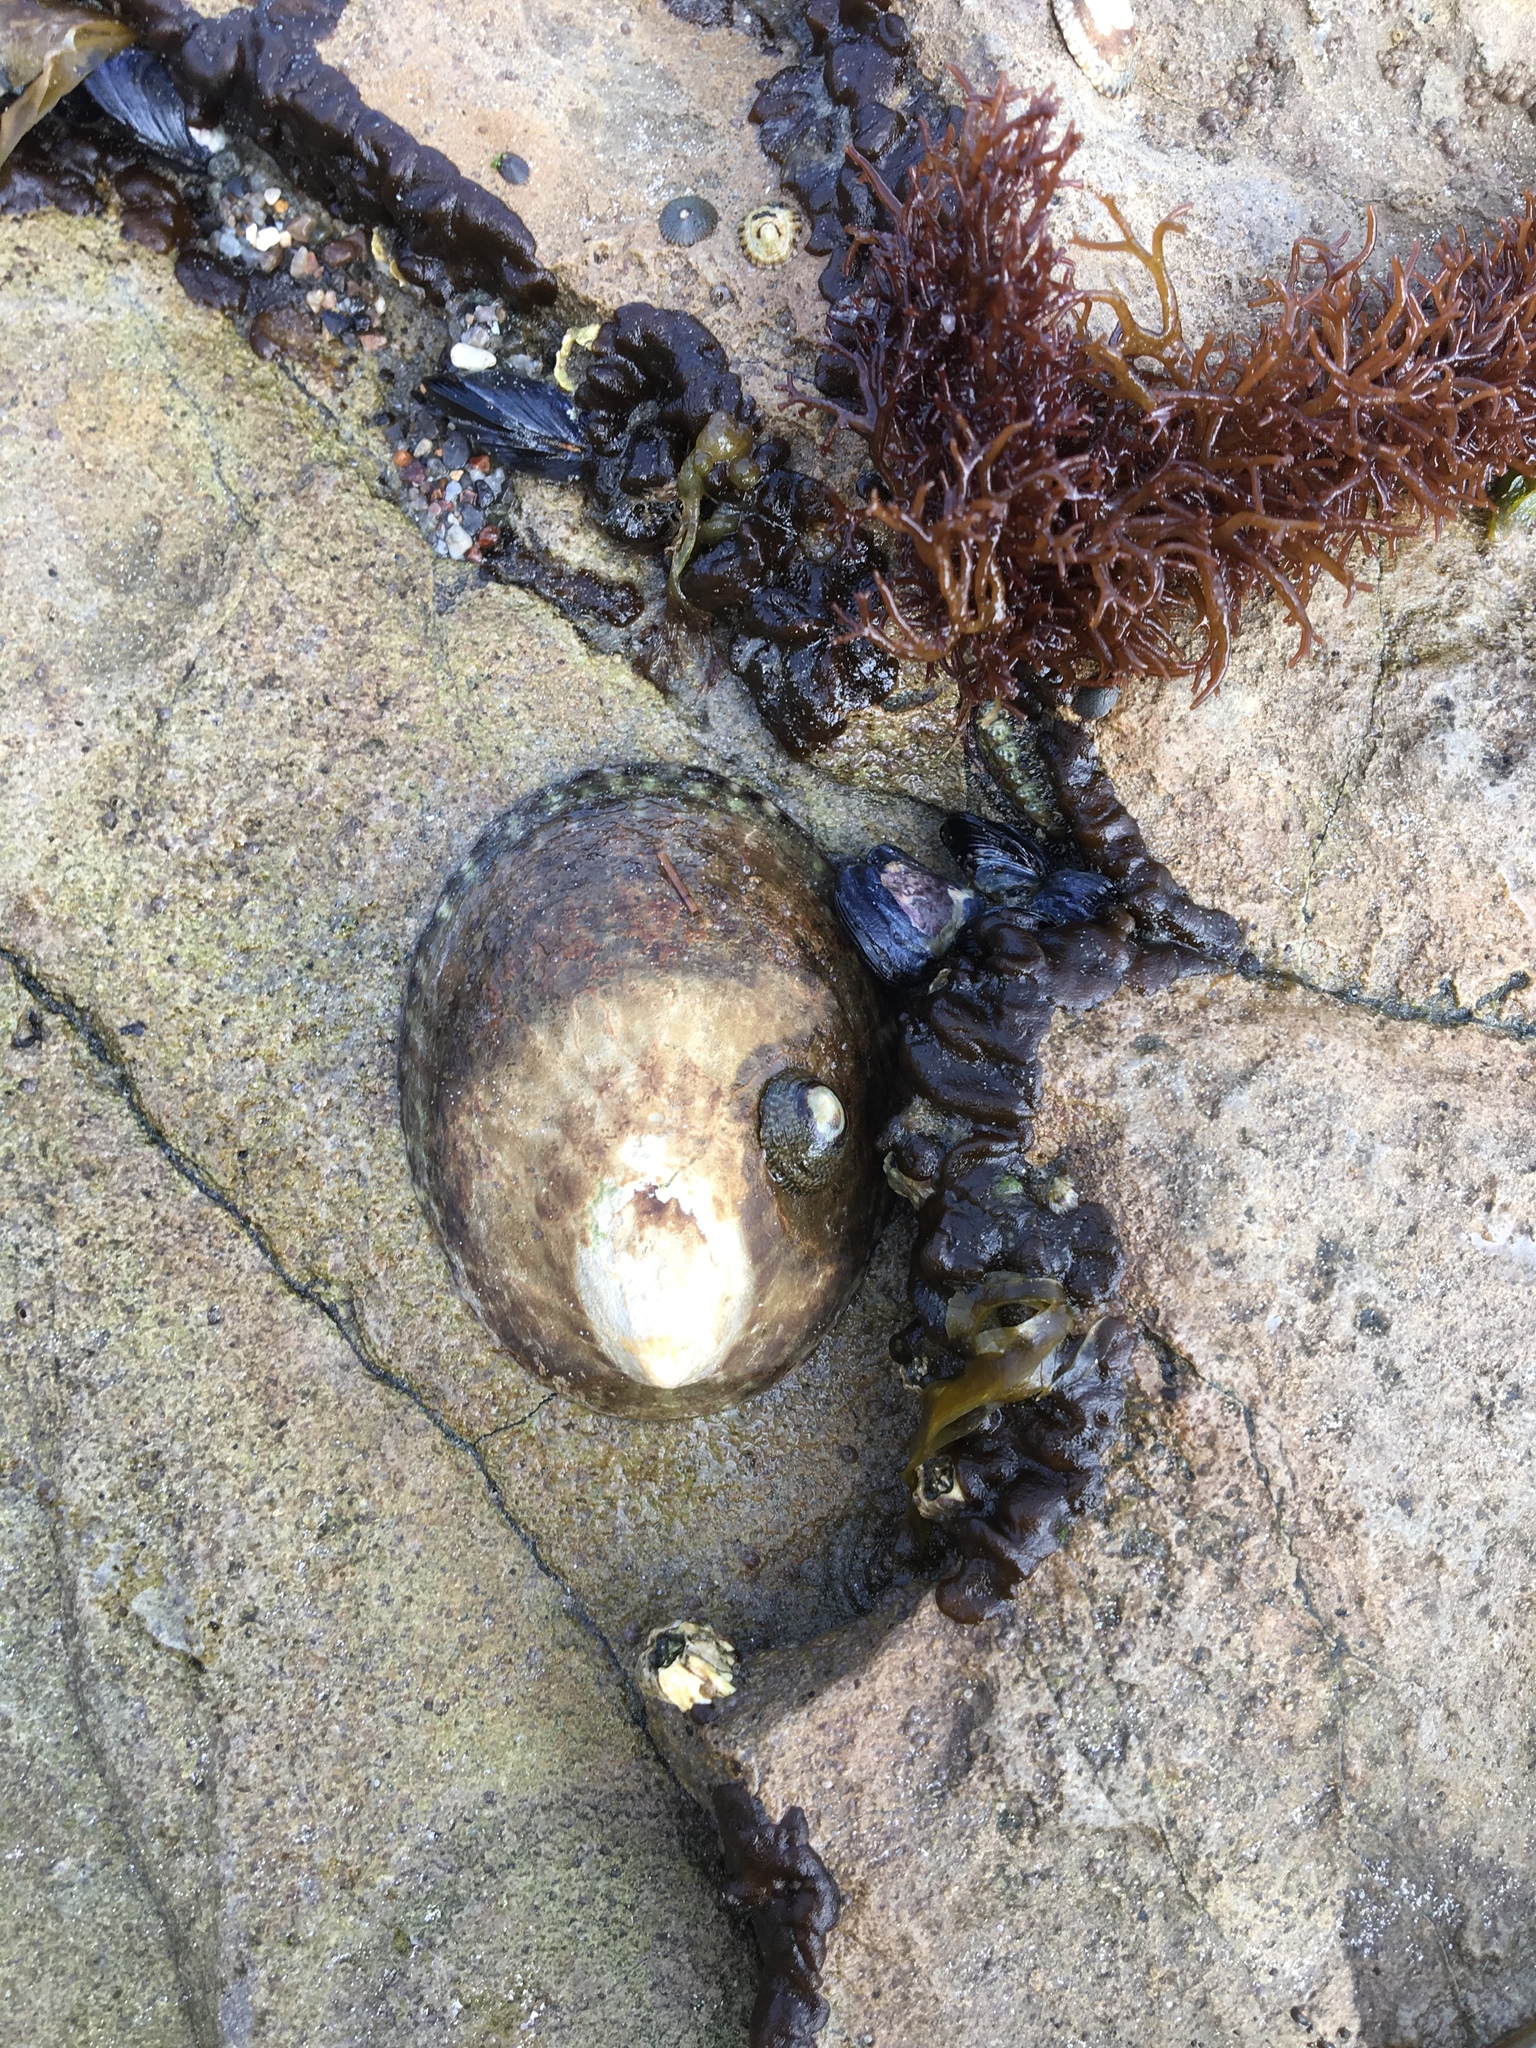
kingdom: Animalia
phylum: Mollusca
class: Gastropoda
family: Lottiidae
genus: Lottia
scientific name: Lottia gigantea
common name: Owl limpet
